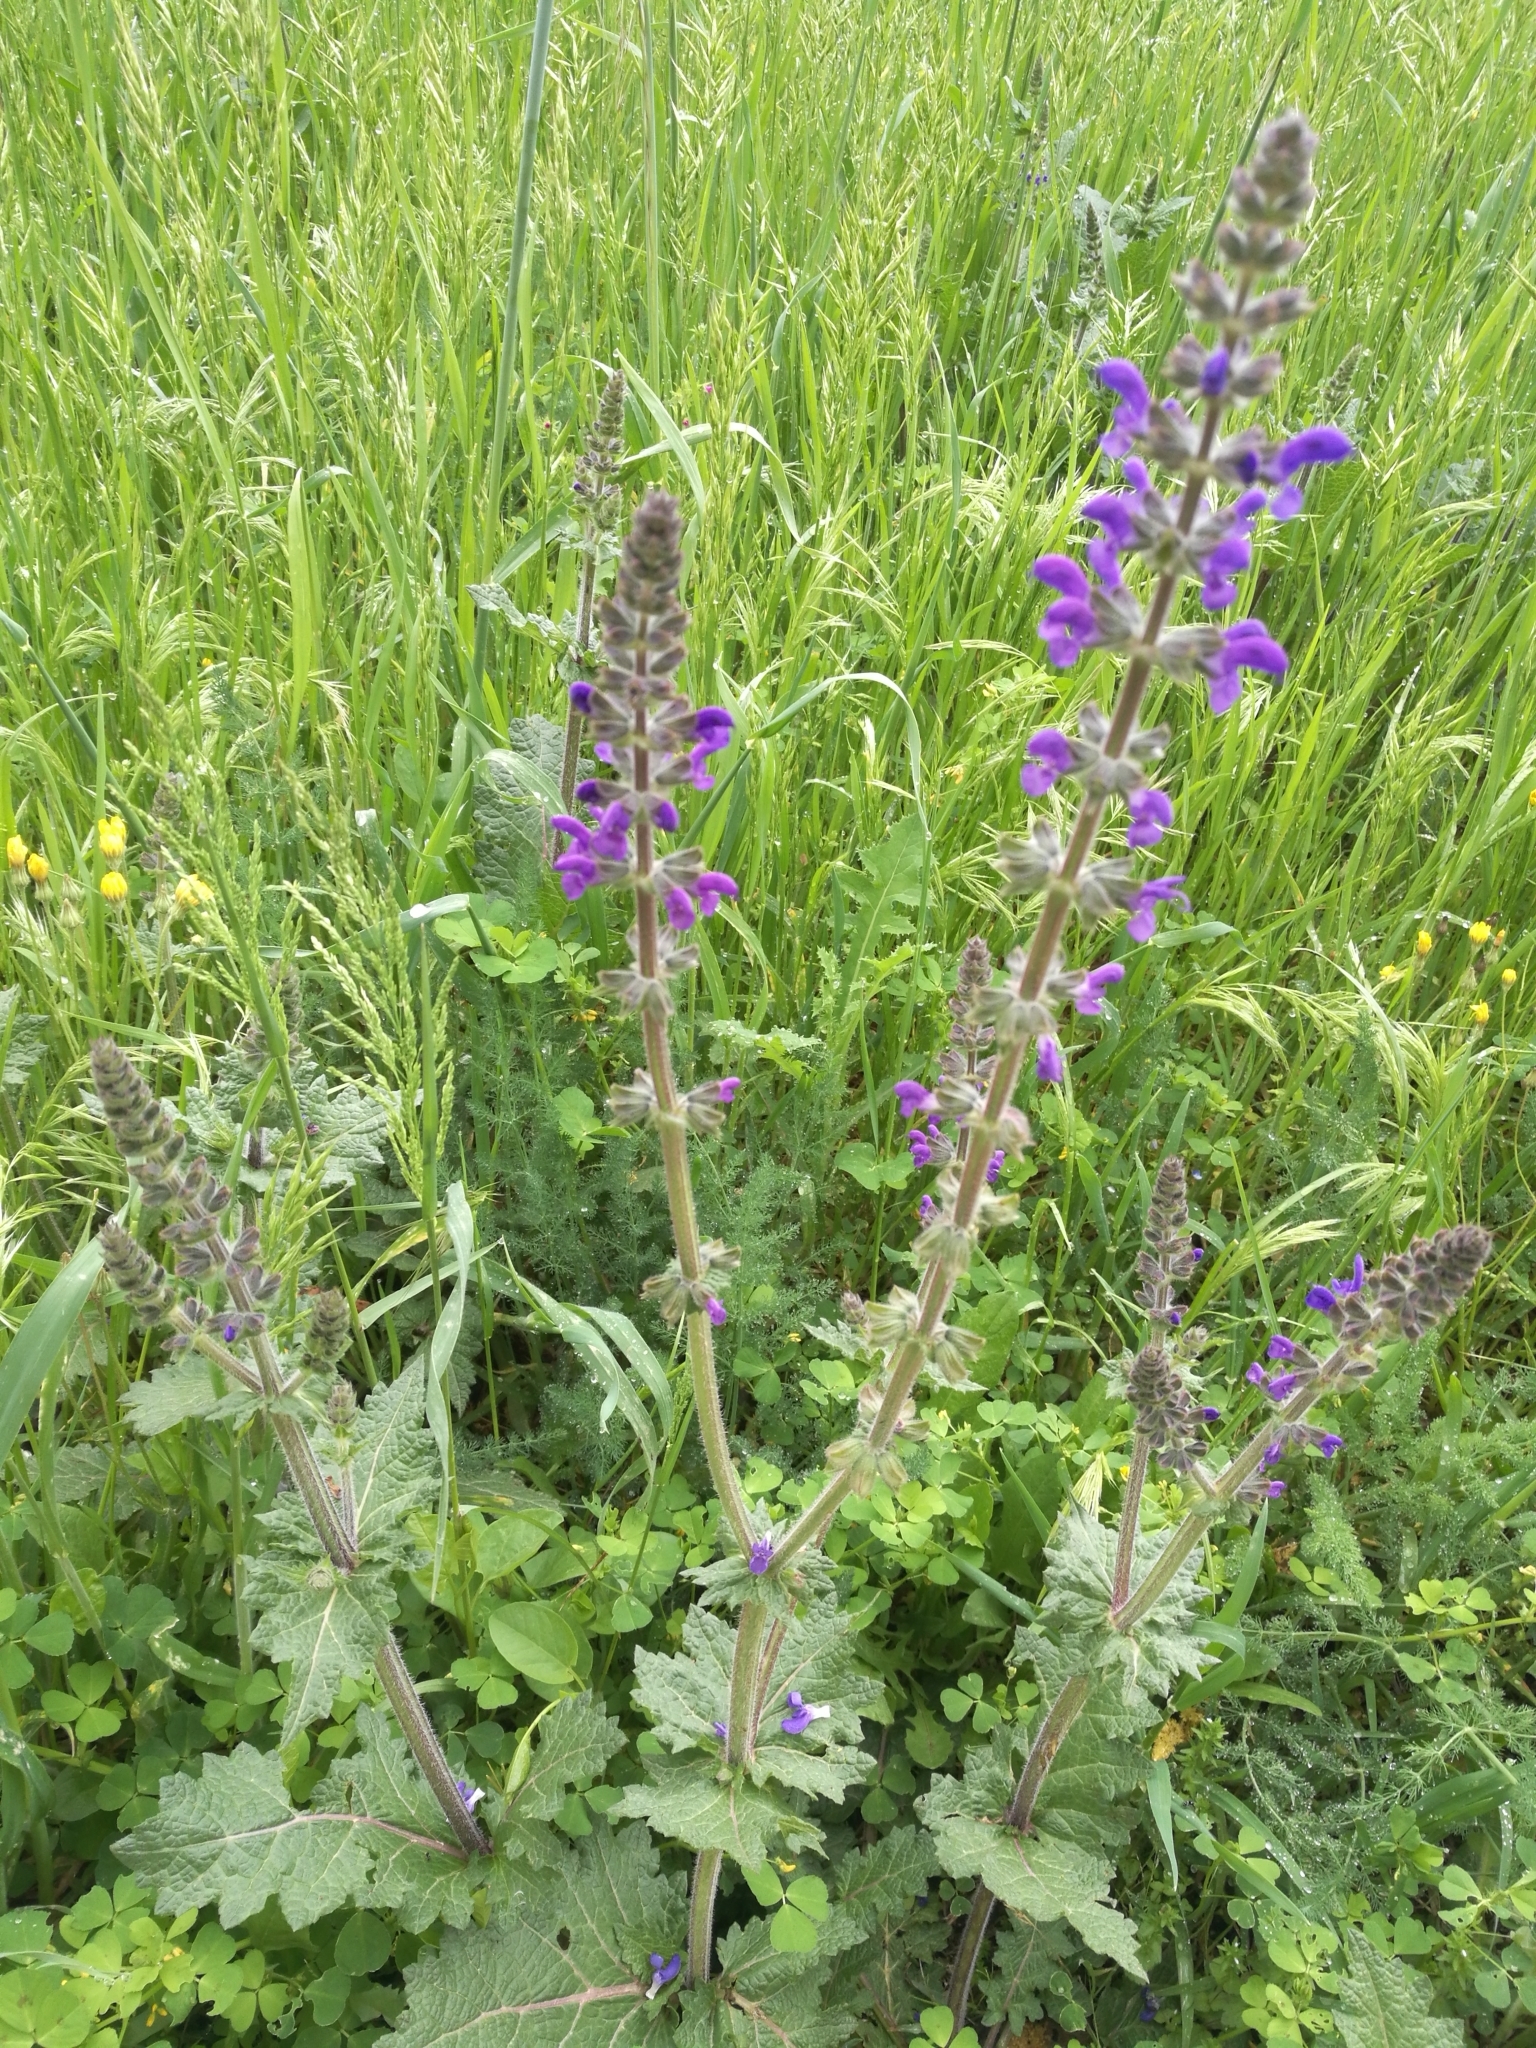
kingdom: Plantae
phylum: Tracheophyta
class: Magnoliopsida
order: Lamiales
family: Lamiaceae
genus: Salvia
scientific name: Salvia pratensis
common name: Meadow sage
